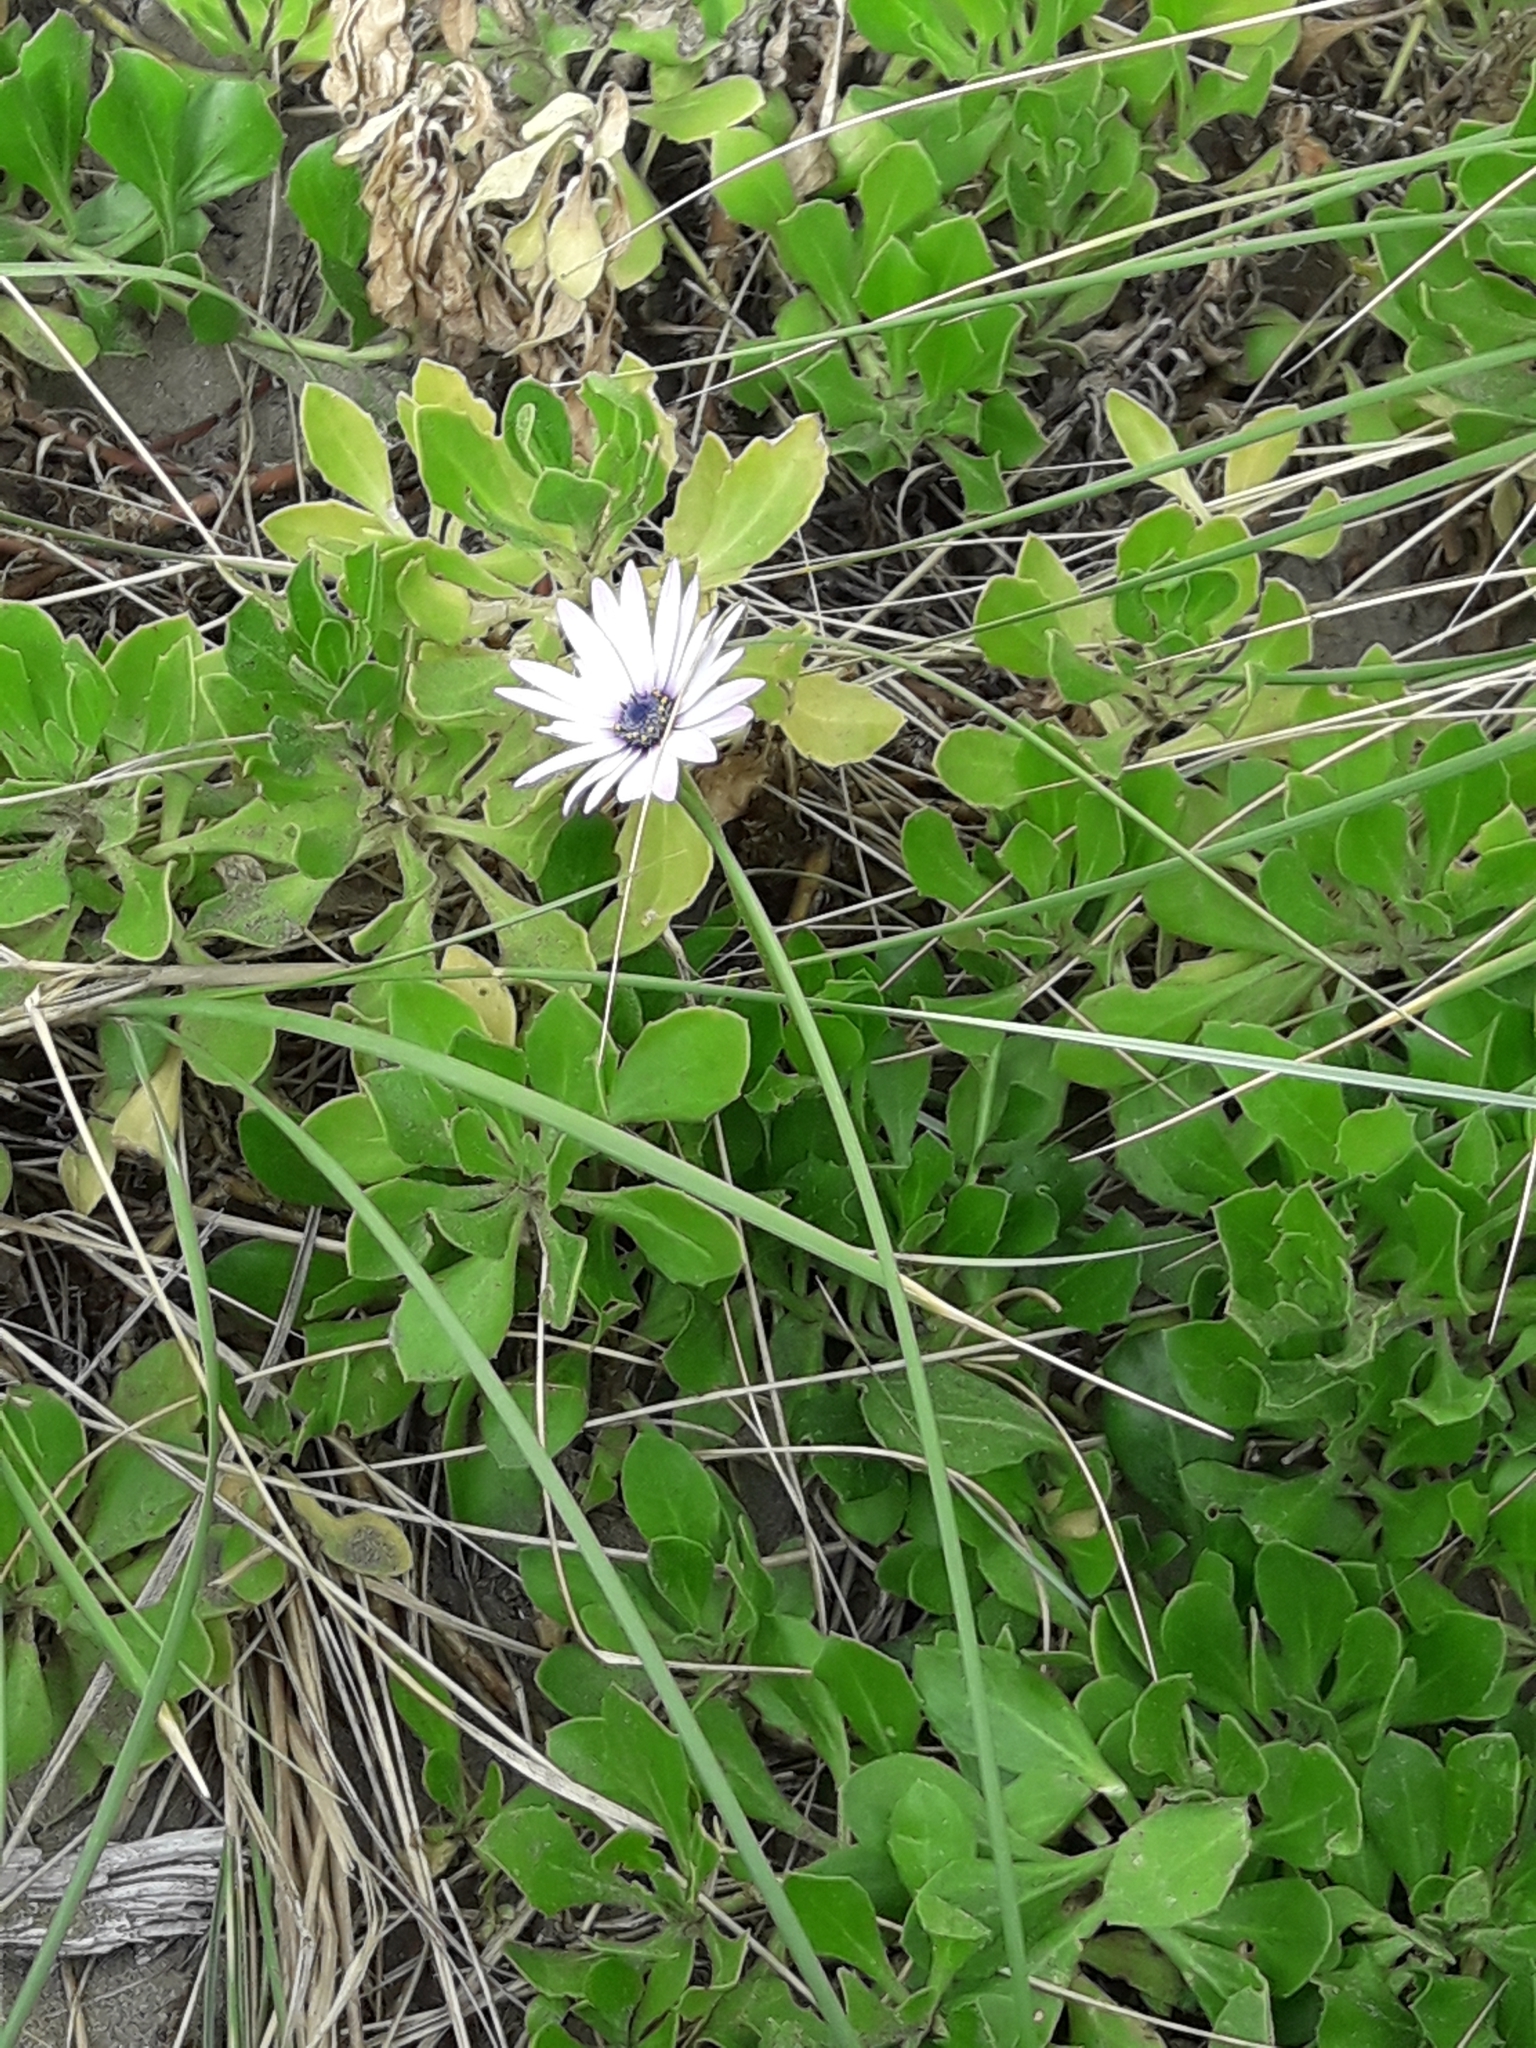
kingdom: Plantae
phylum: Tracheophyta
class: Magnoliopsida
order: Asterales
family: Asteraceae
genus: Dimorphotheca
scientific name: Dimorphotheca fruticosa
